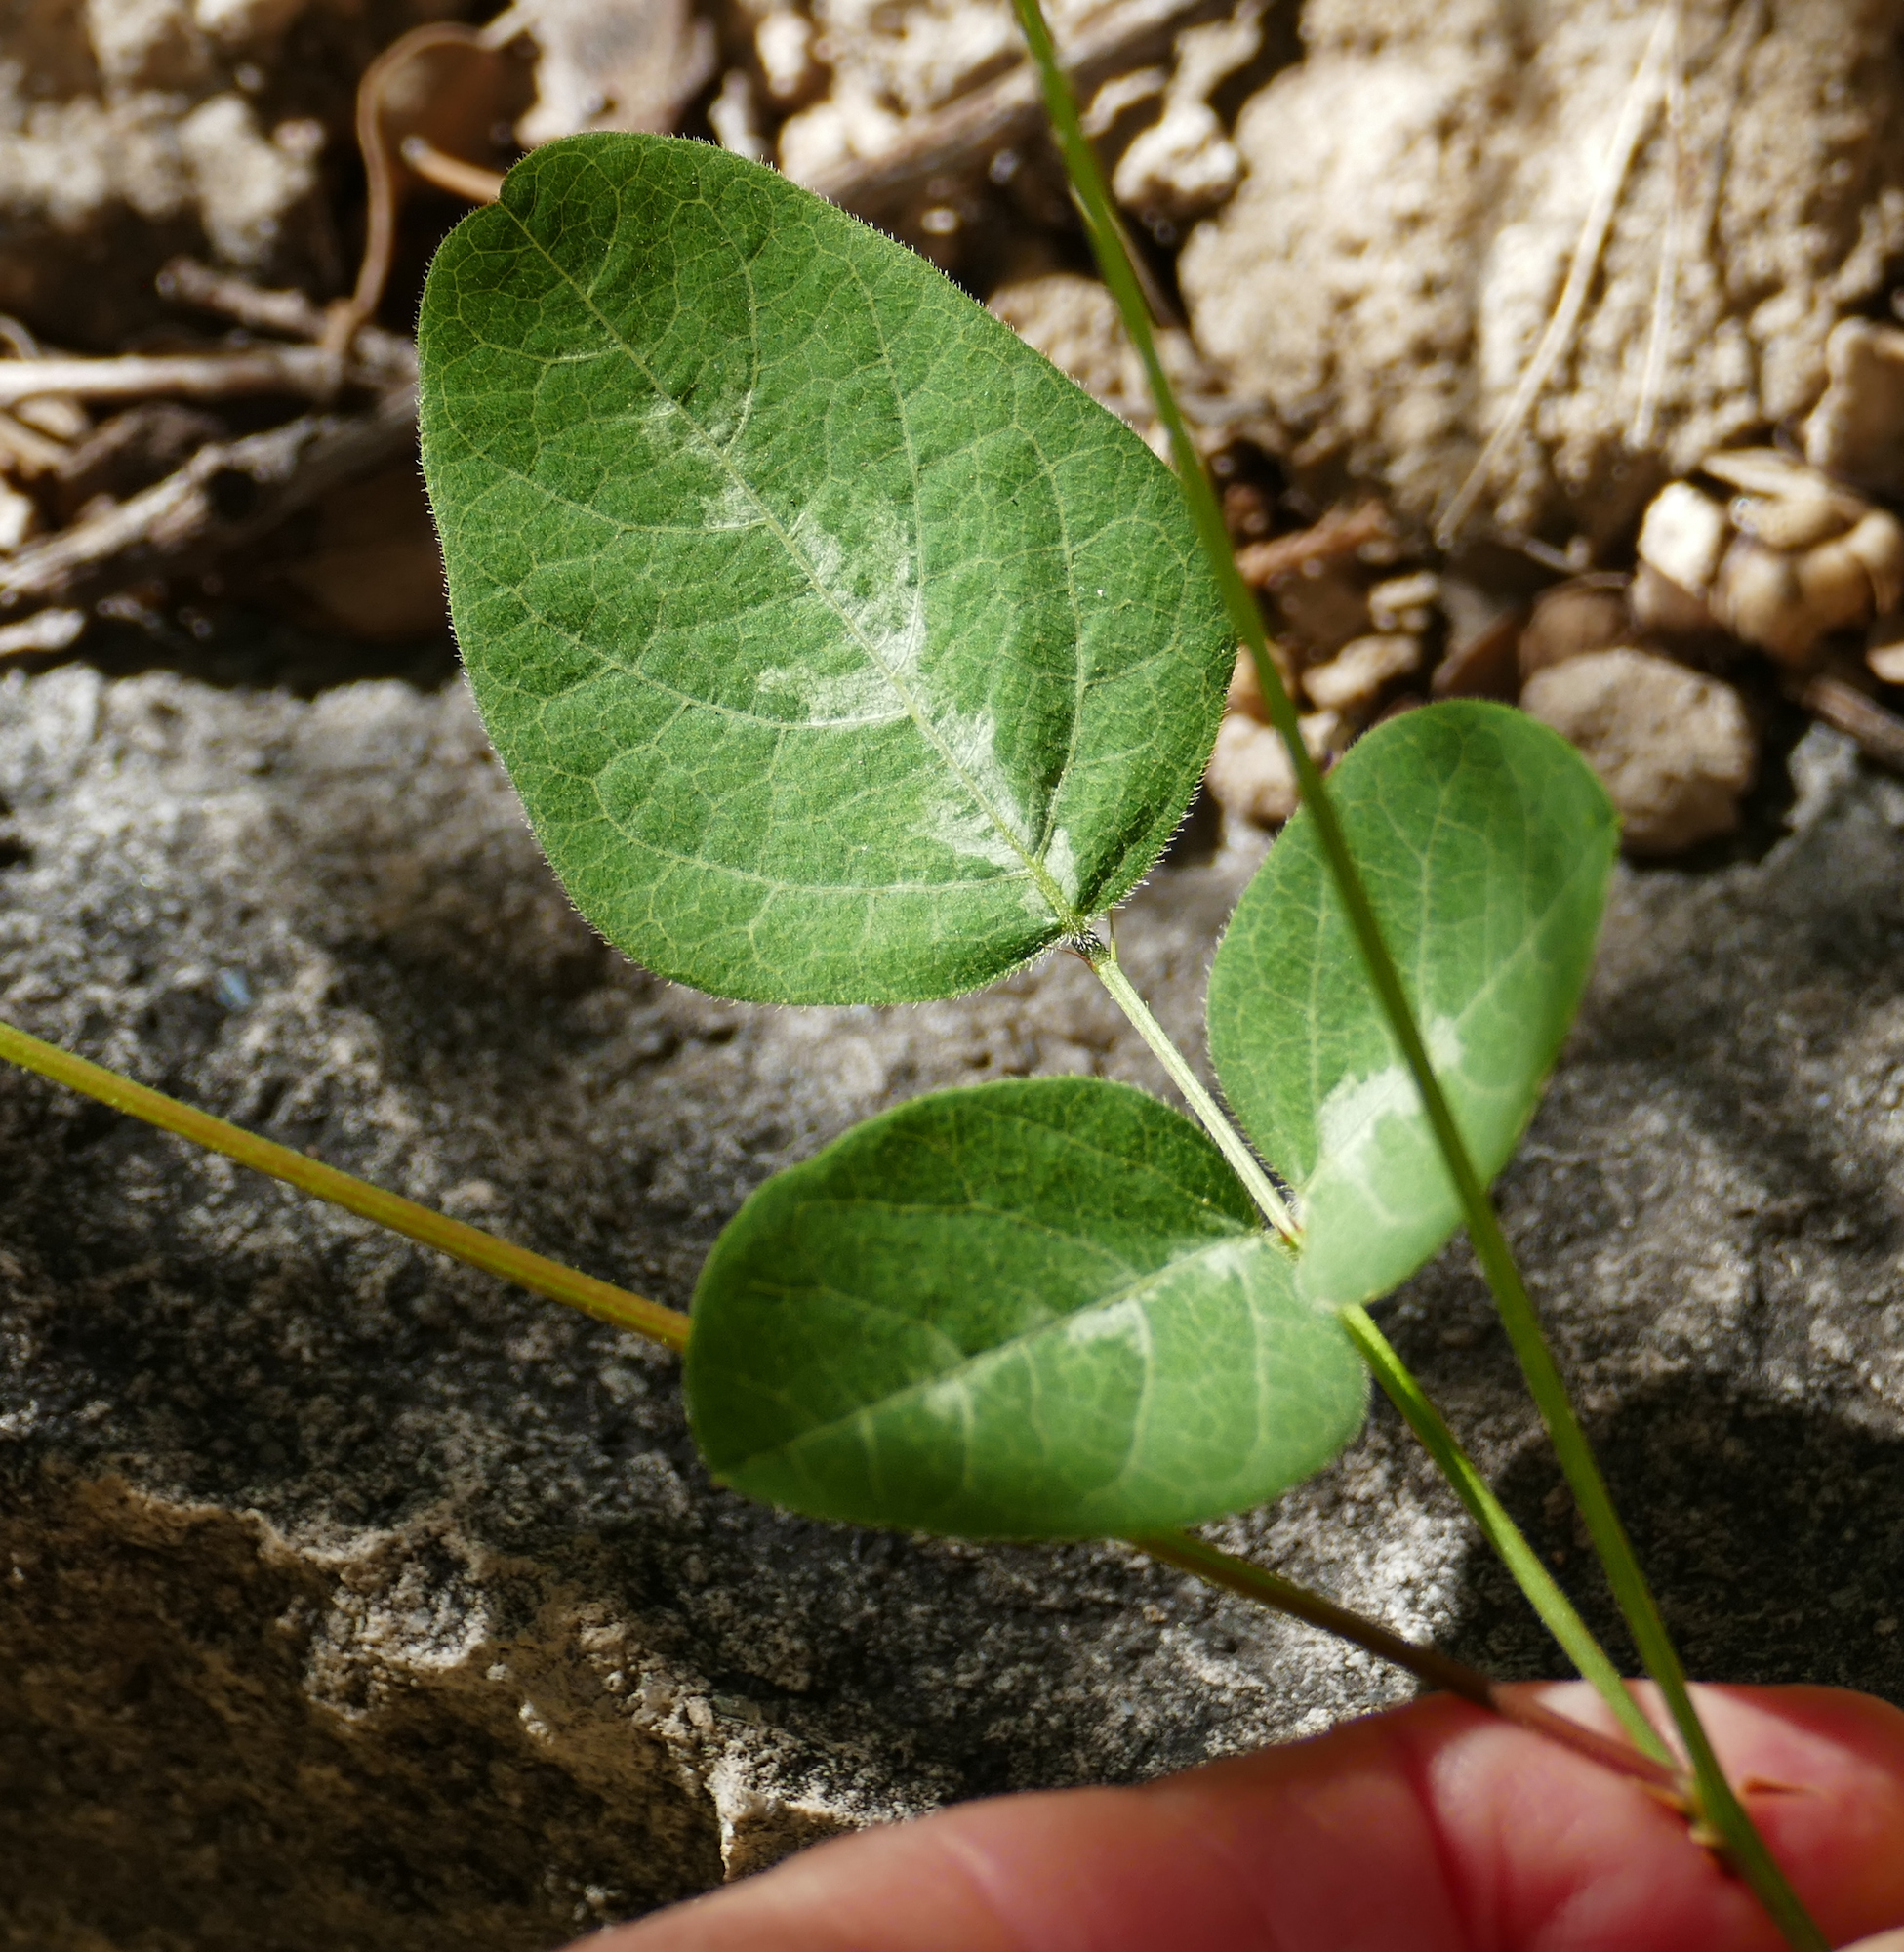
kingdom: Plantae
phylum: Tracheophyta
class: Magnoliopsida
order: Fabales
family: Fabaceae
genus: Desmodium
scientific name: Desmodium grahamii
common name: Graham's tick-trefoil
